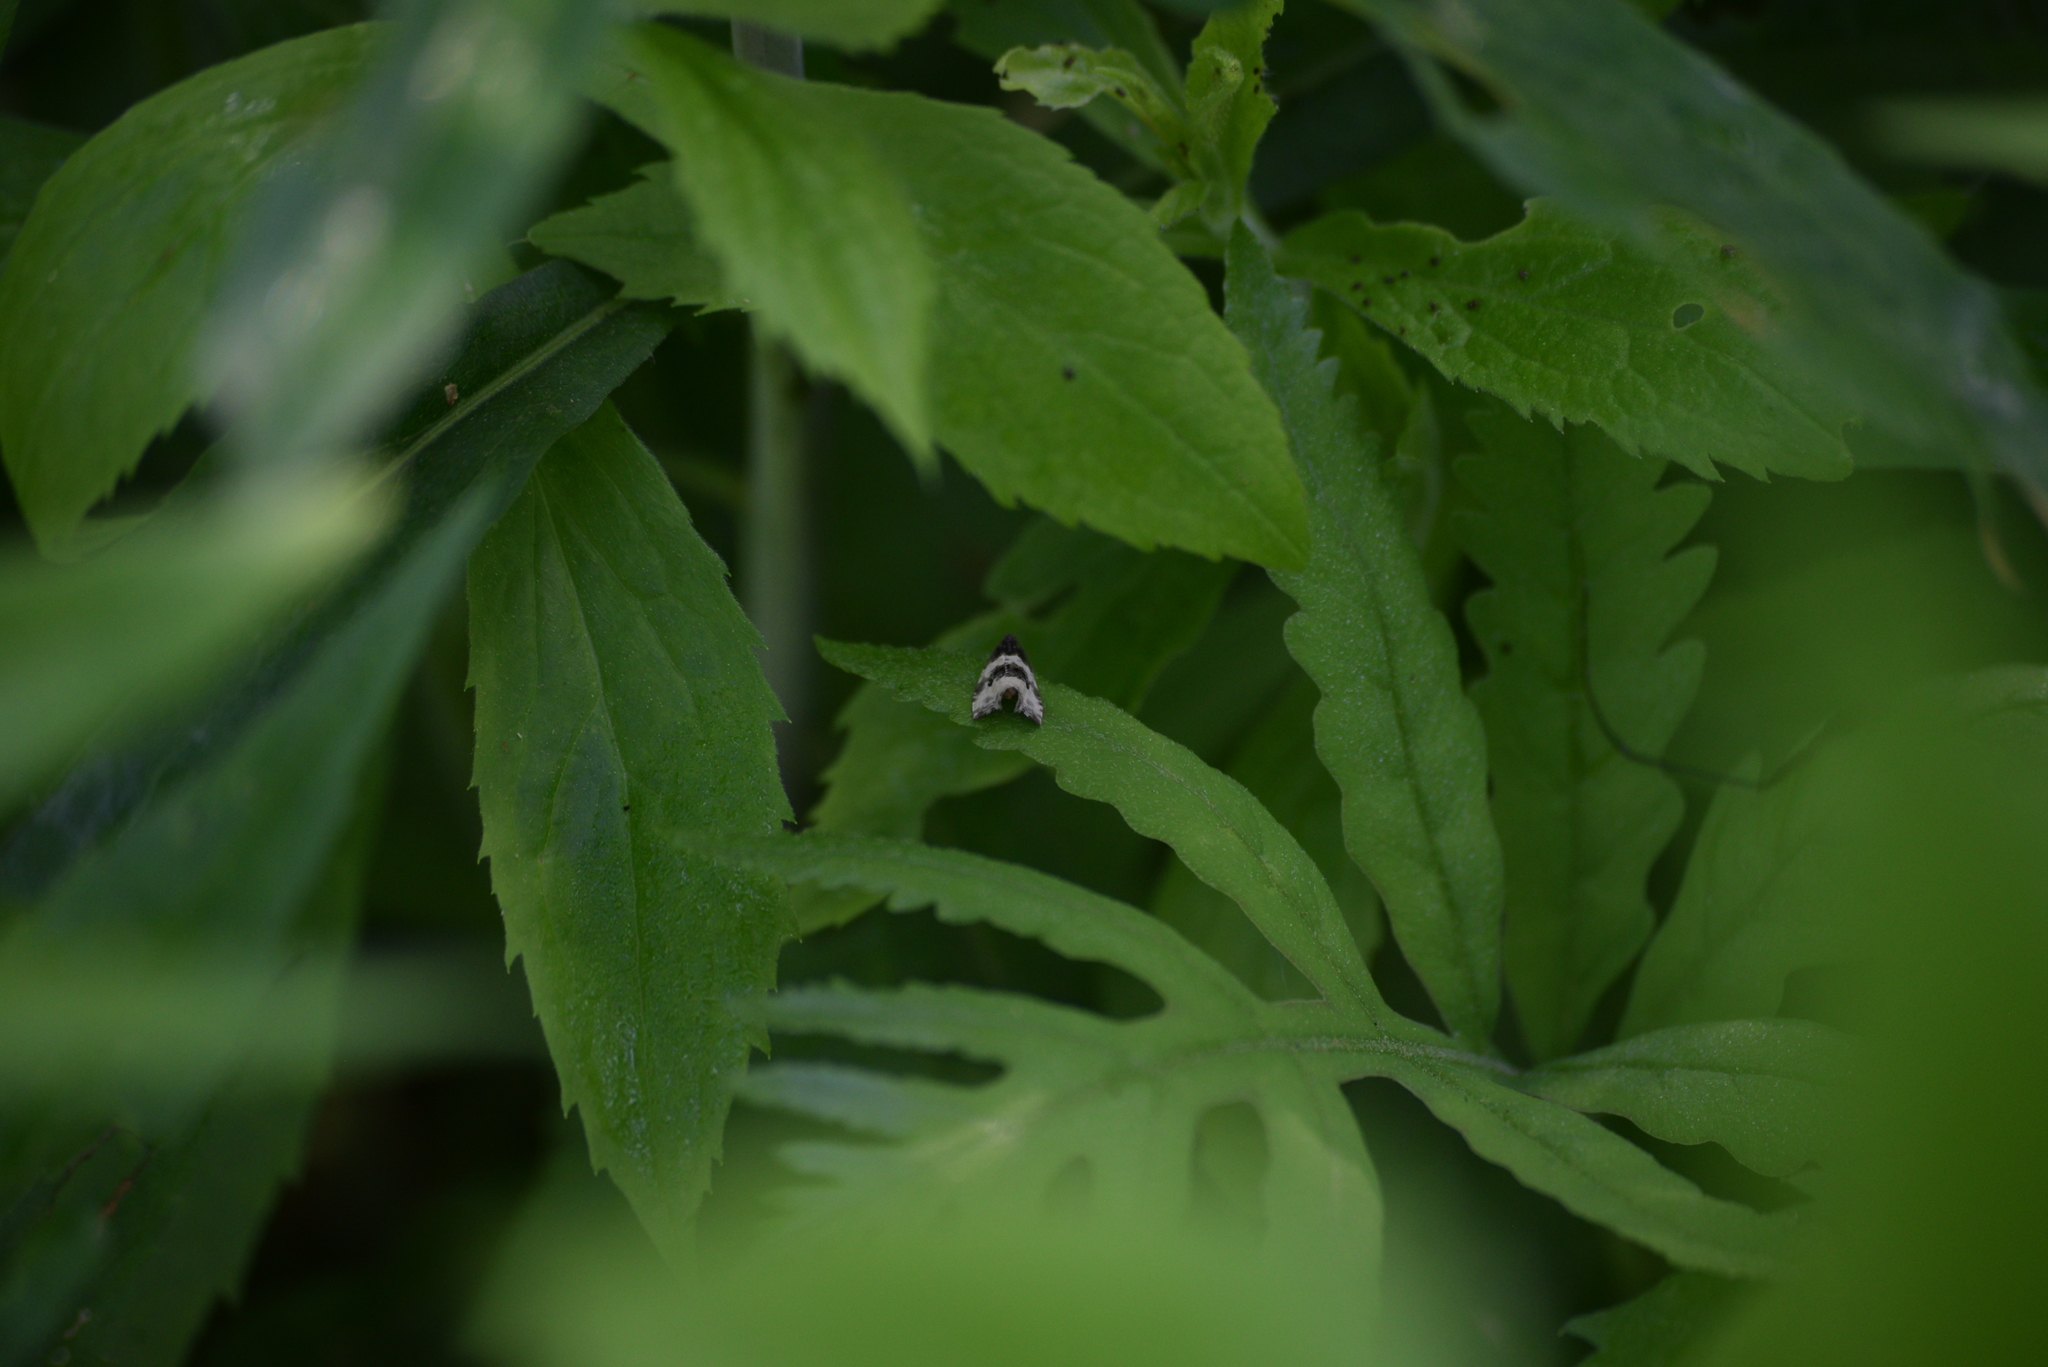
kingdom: Animalia
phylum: Arthropoda
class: Insecta
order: Lepidoptera
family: Tortricidae
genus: Olethreutes
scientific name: Olethreutes bipartitana
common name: Divided olethreutes moth
